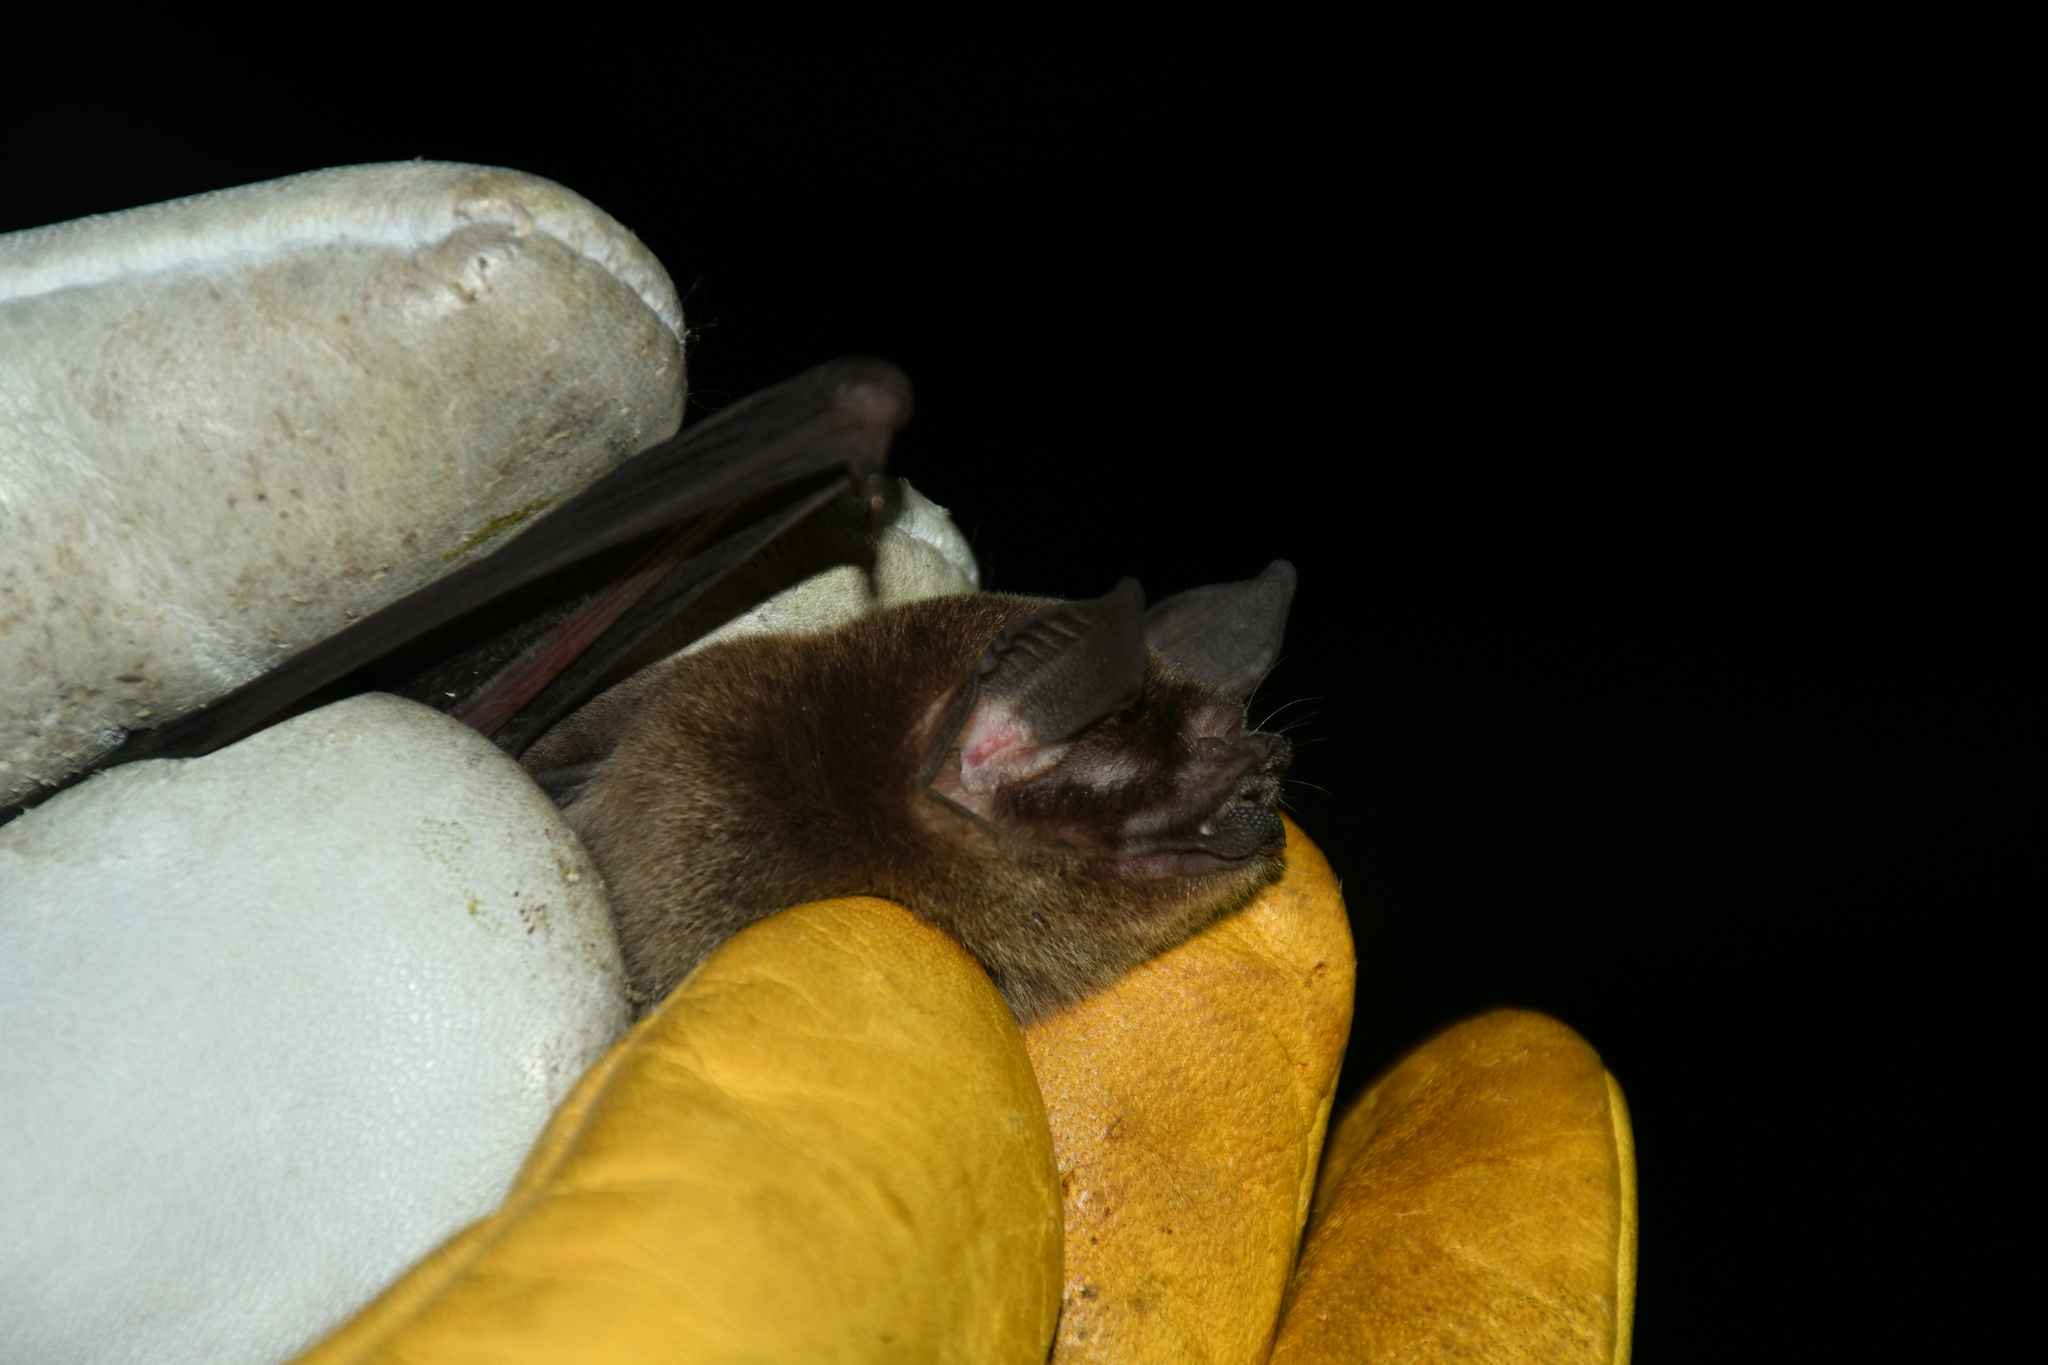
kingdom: Animalia
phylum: Chordata
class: Mammalia
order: Chiroptera
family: Mormoopidae
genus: Pteronotus
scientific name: Pteronotus mesoamericanus
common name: Mesoamerican common mustached bat
